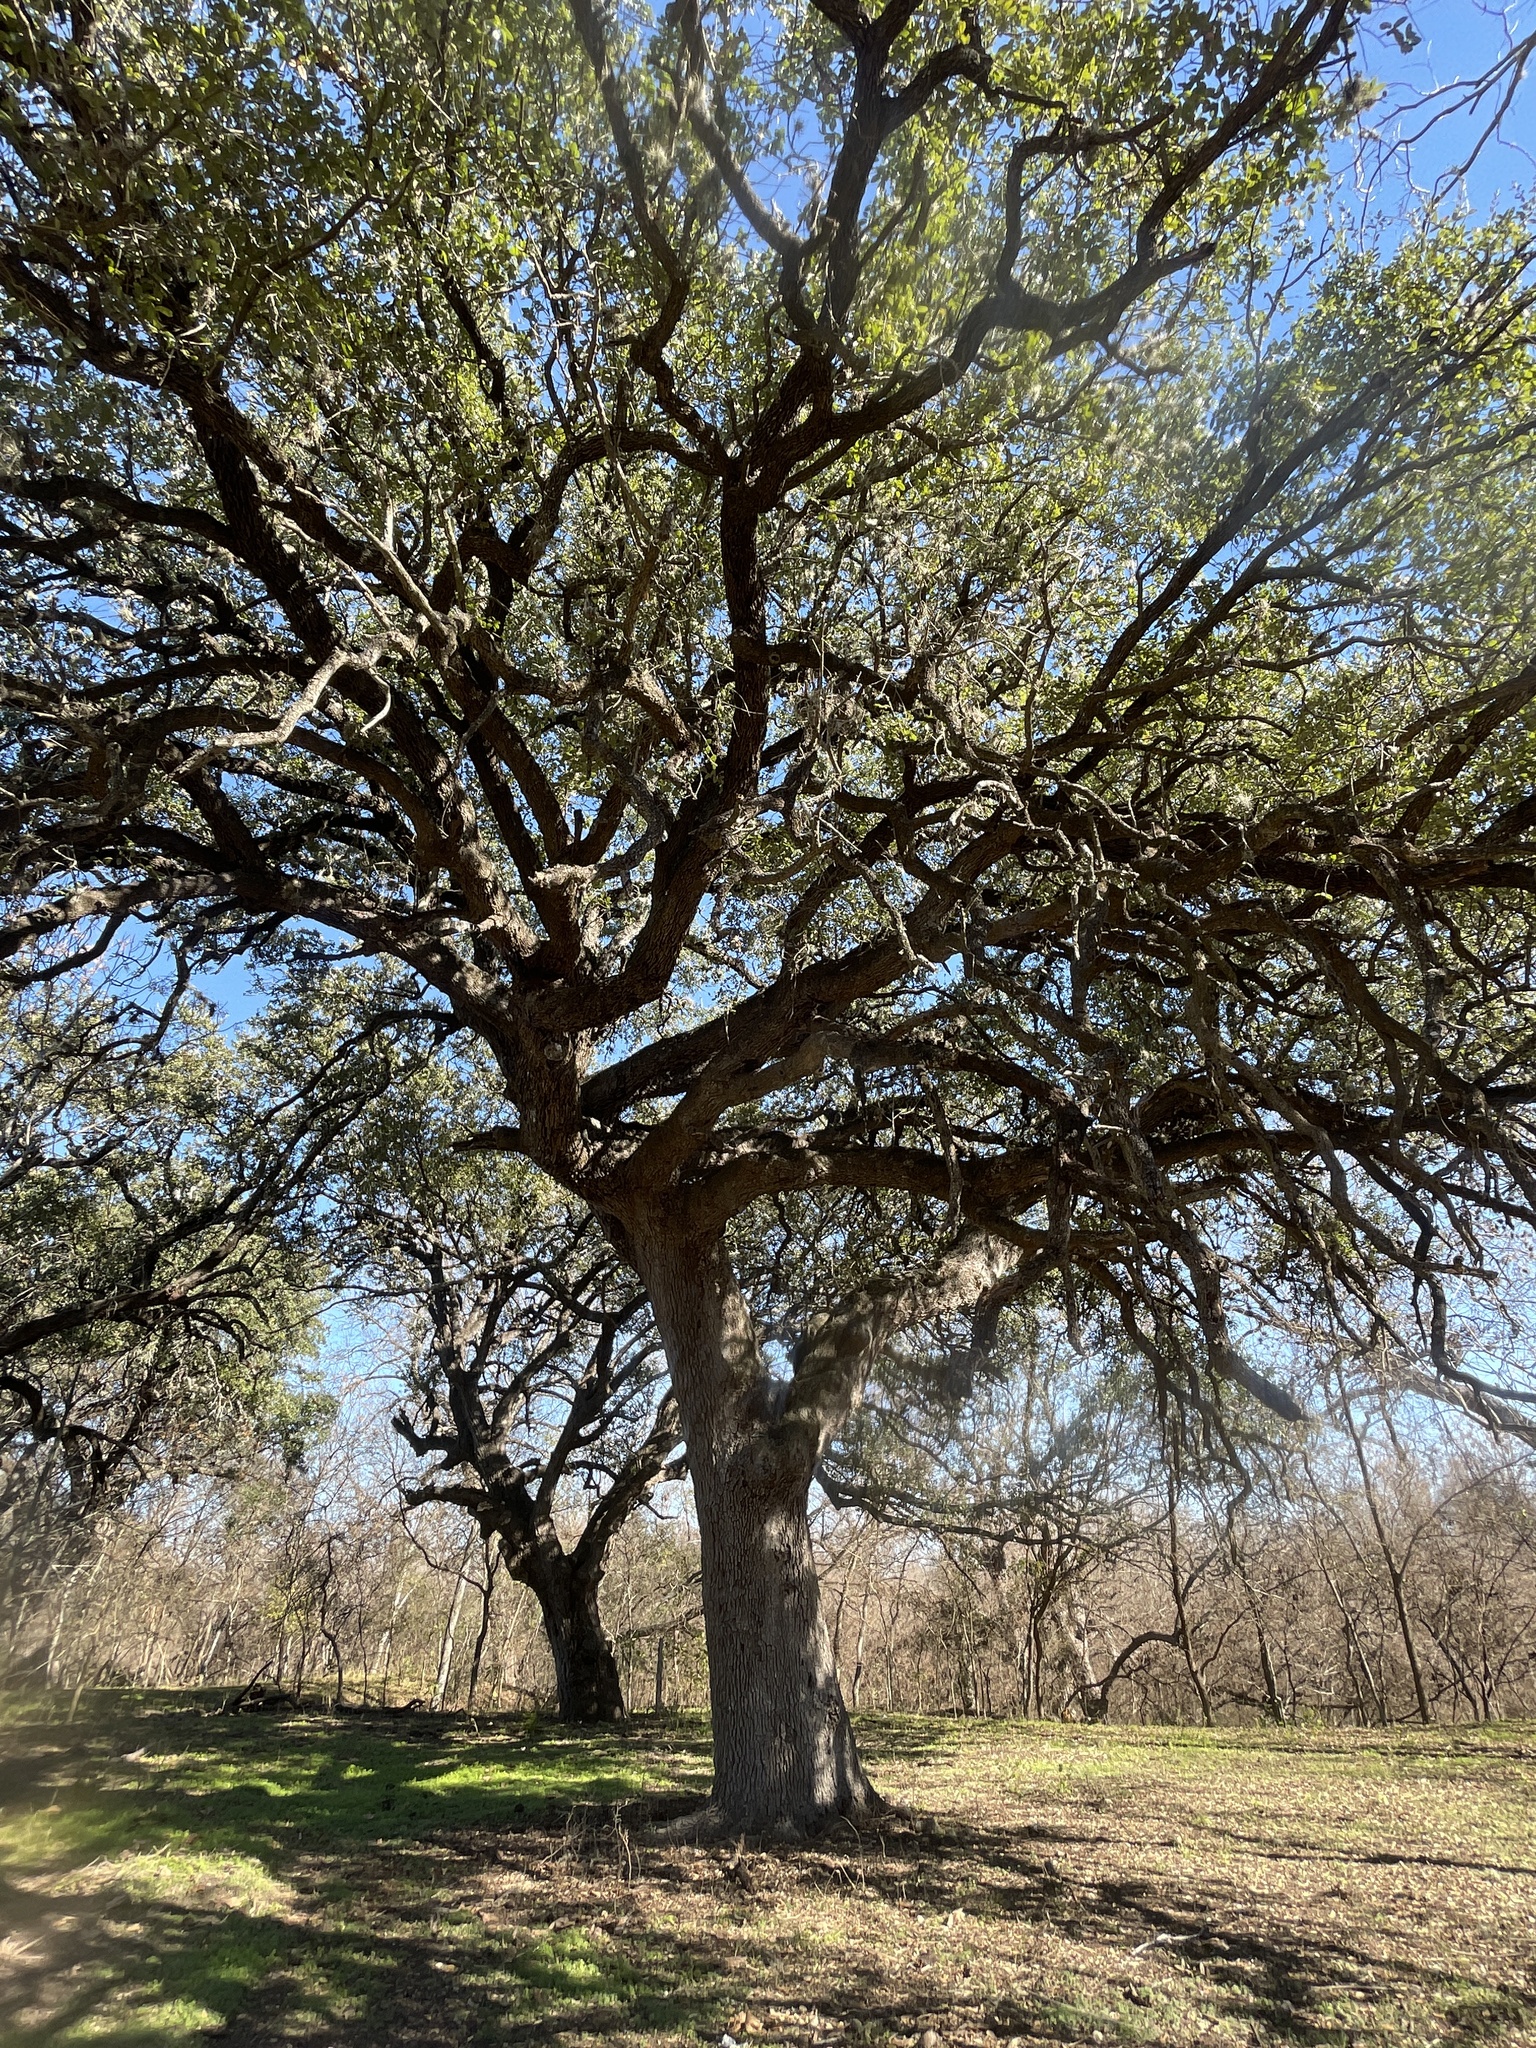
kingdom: Plantae
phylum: Tracheophyta
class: Magnoliopsida
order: Fagales
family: Fagaceae
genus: Quercus
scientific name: Quercus fusiformis
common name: Texas live oak
